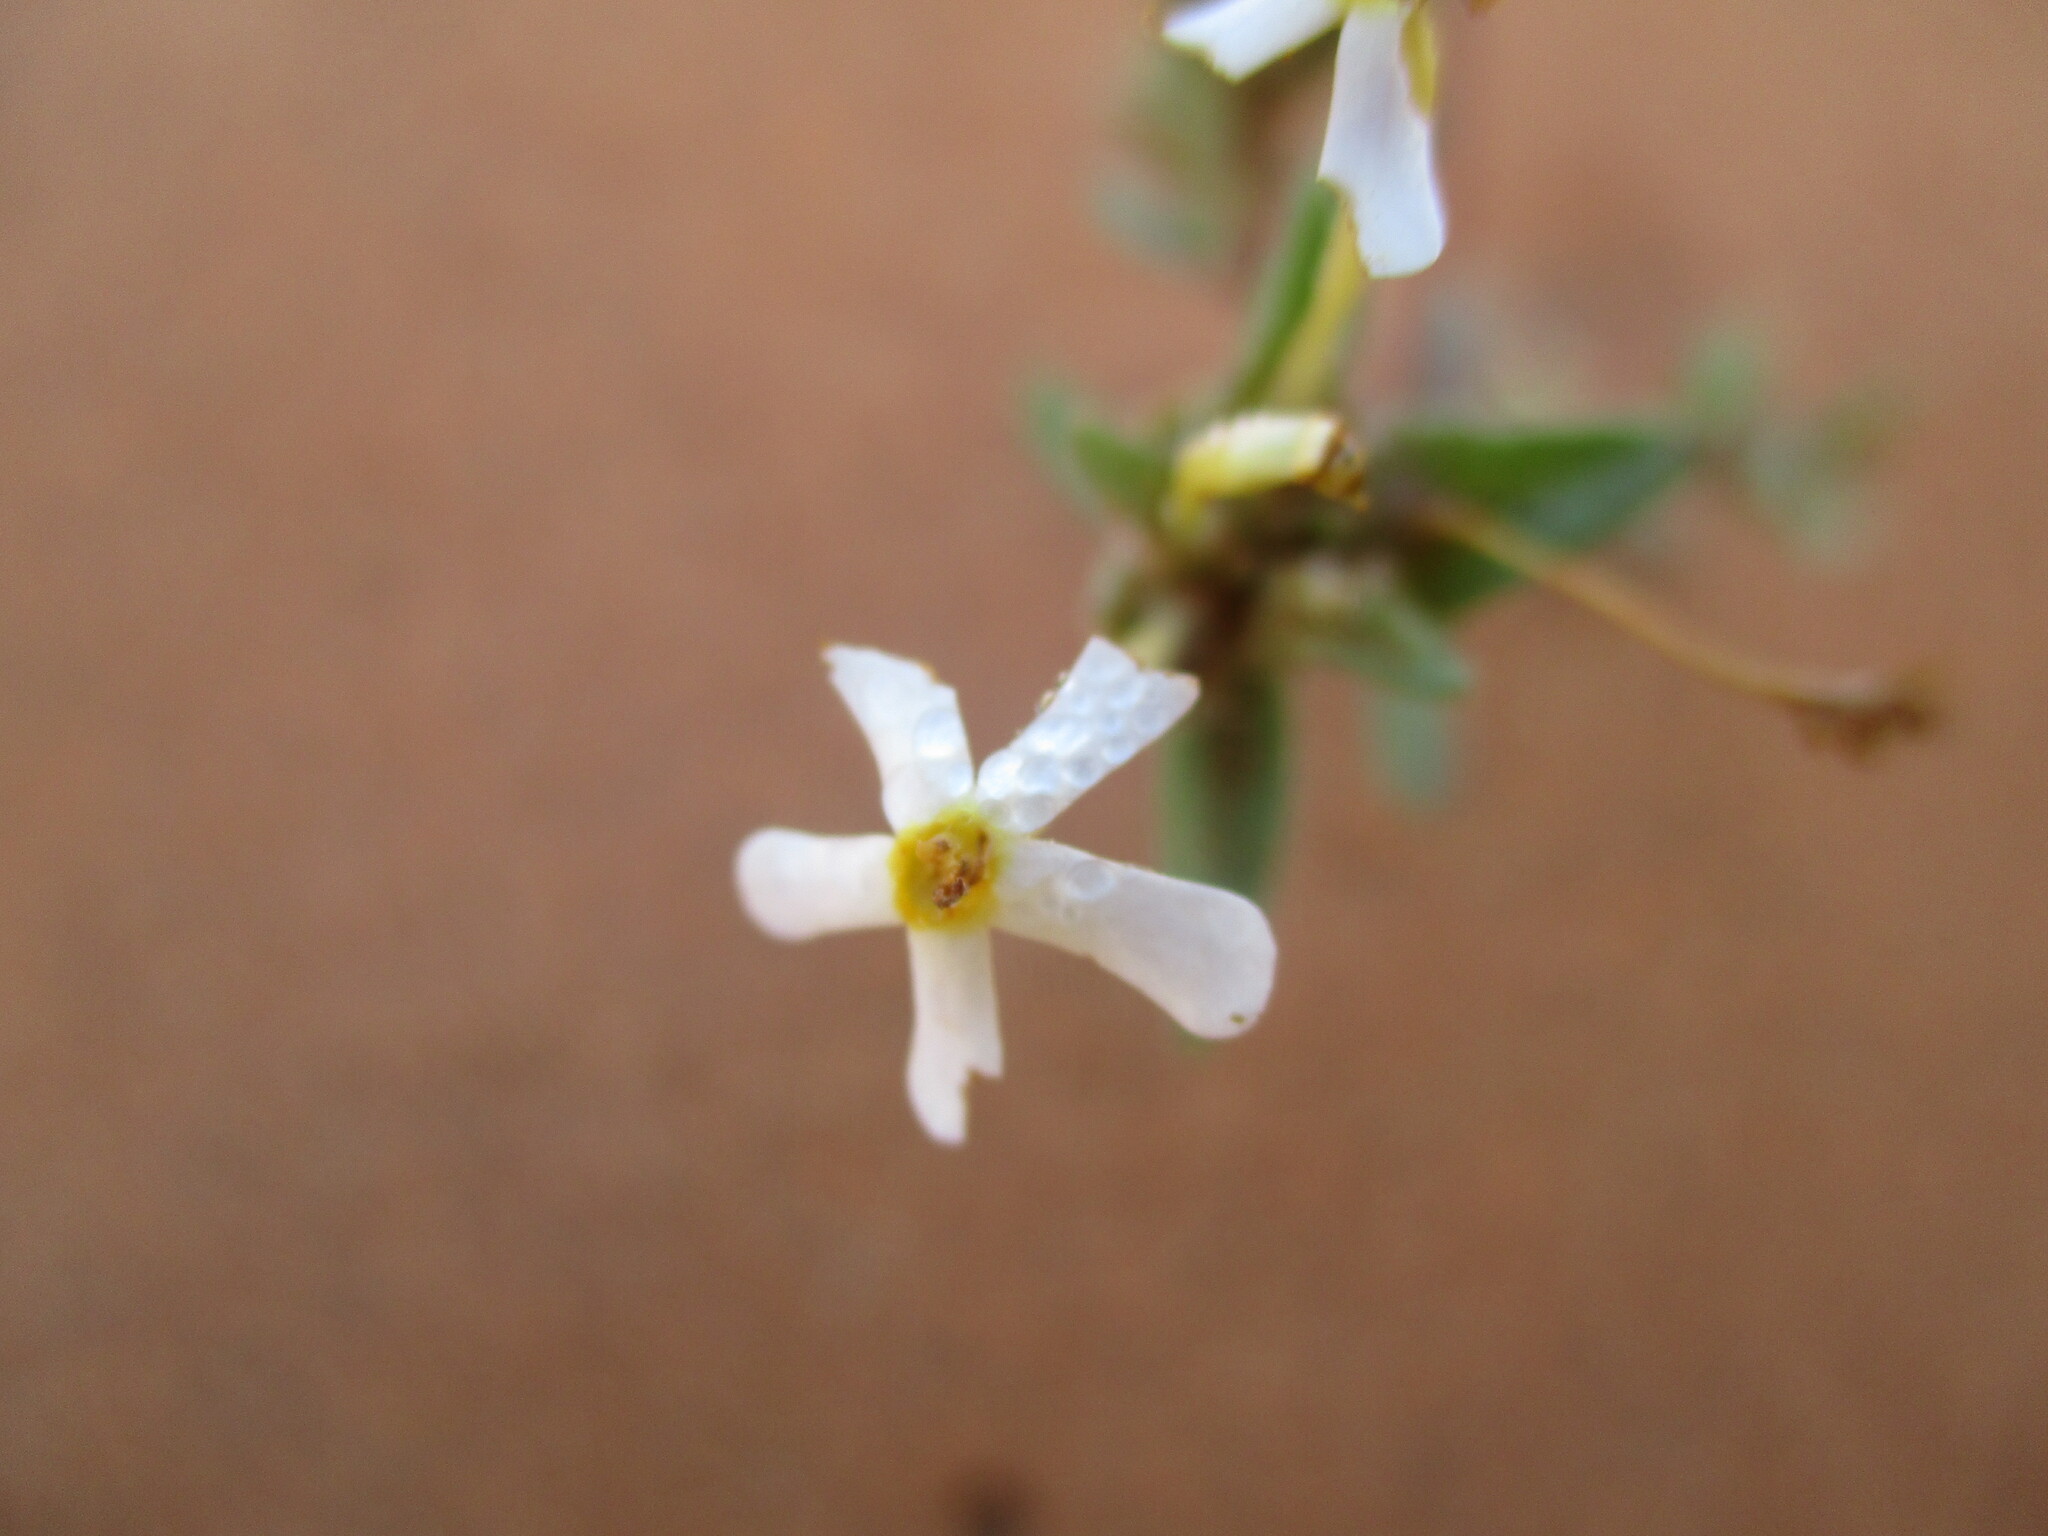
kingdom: Plantae
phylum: Tracheophyta
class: Magnoliopsida
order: Lamiales
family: Scrophulariaceae
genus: Zaluzianskya
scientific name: Zaluzianskya benthamiana
